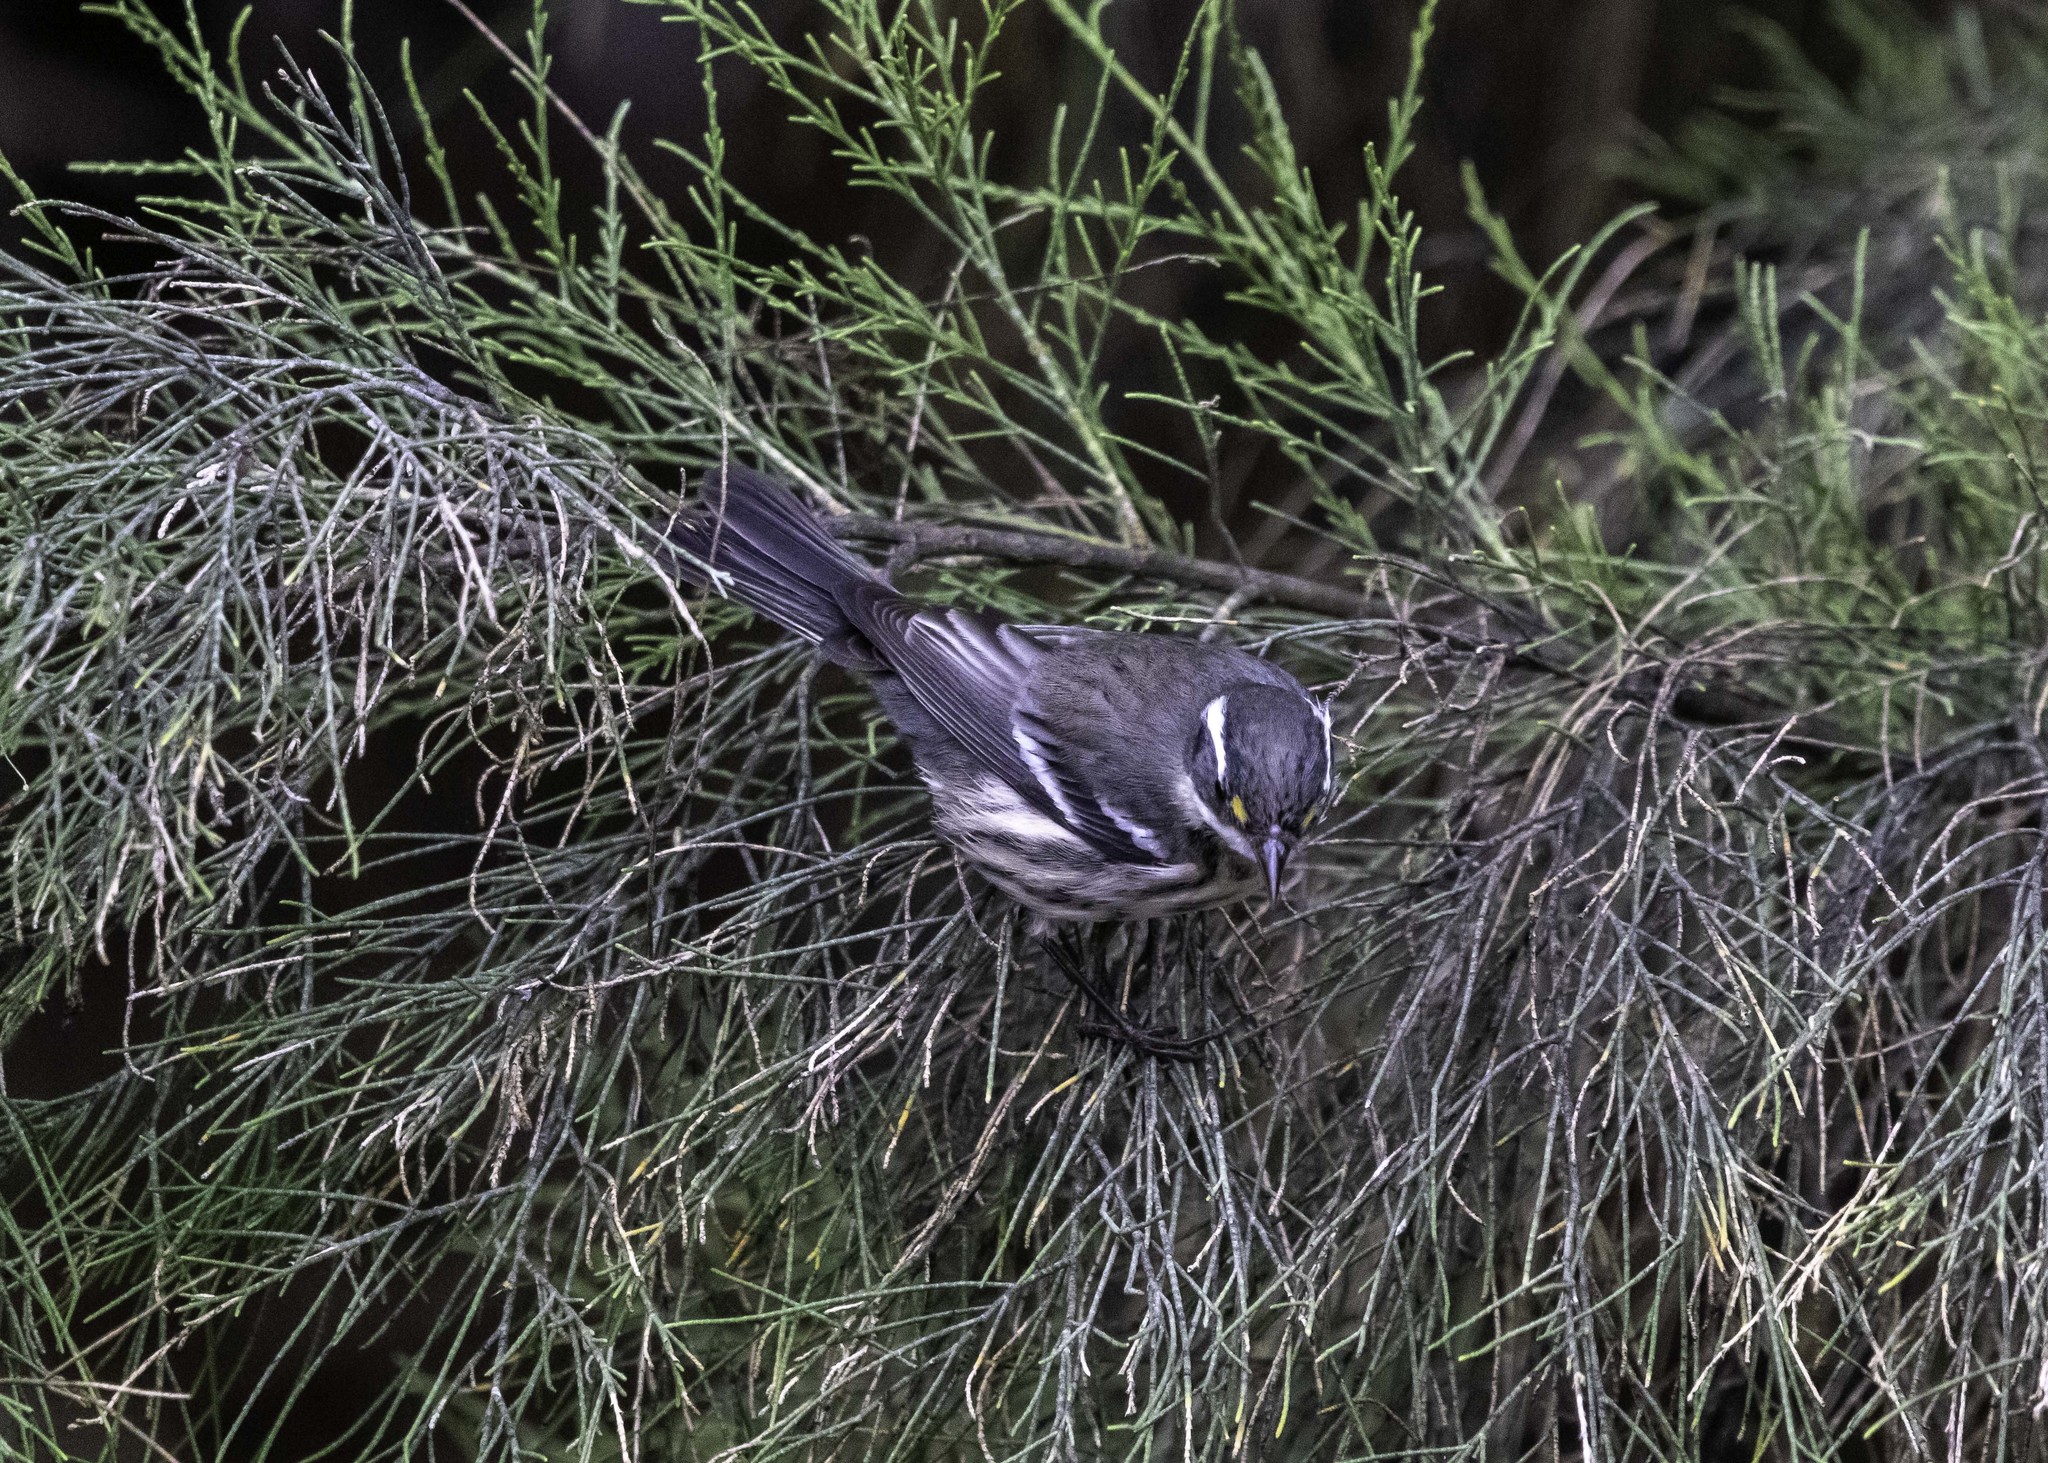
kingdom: Animalia
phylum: Chordata
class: Aves
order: Passeriformes
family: Parulidae
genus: Setophaga
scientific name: Setophaga nigrescens
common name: Black-throated gray warbler
